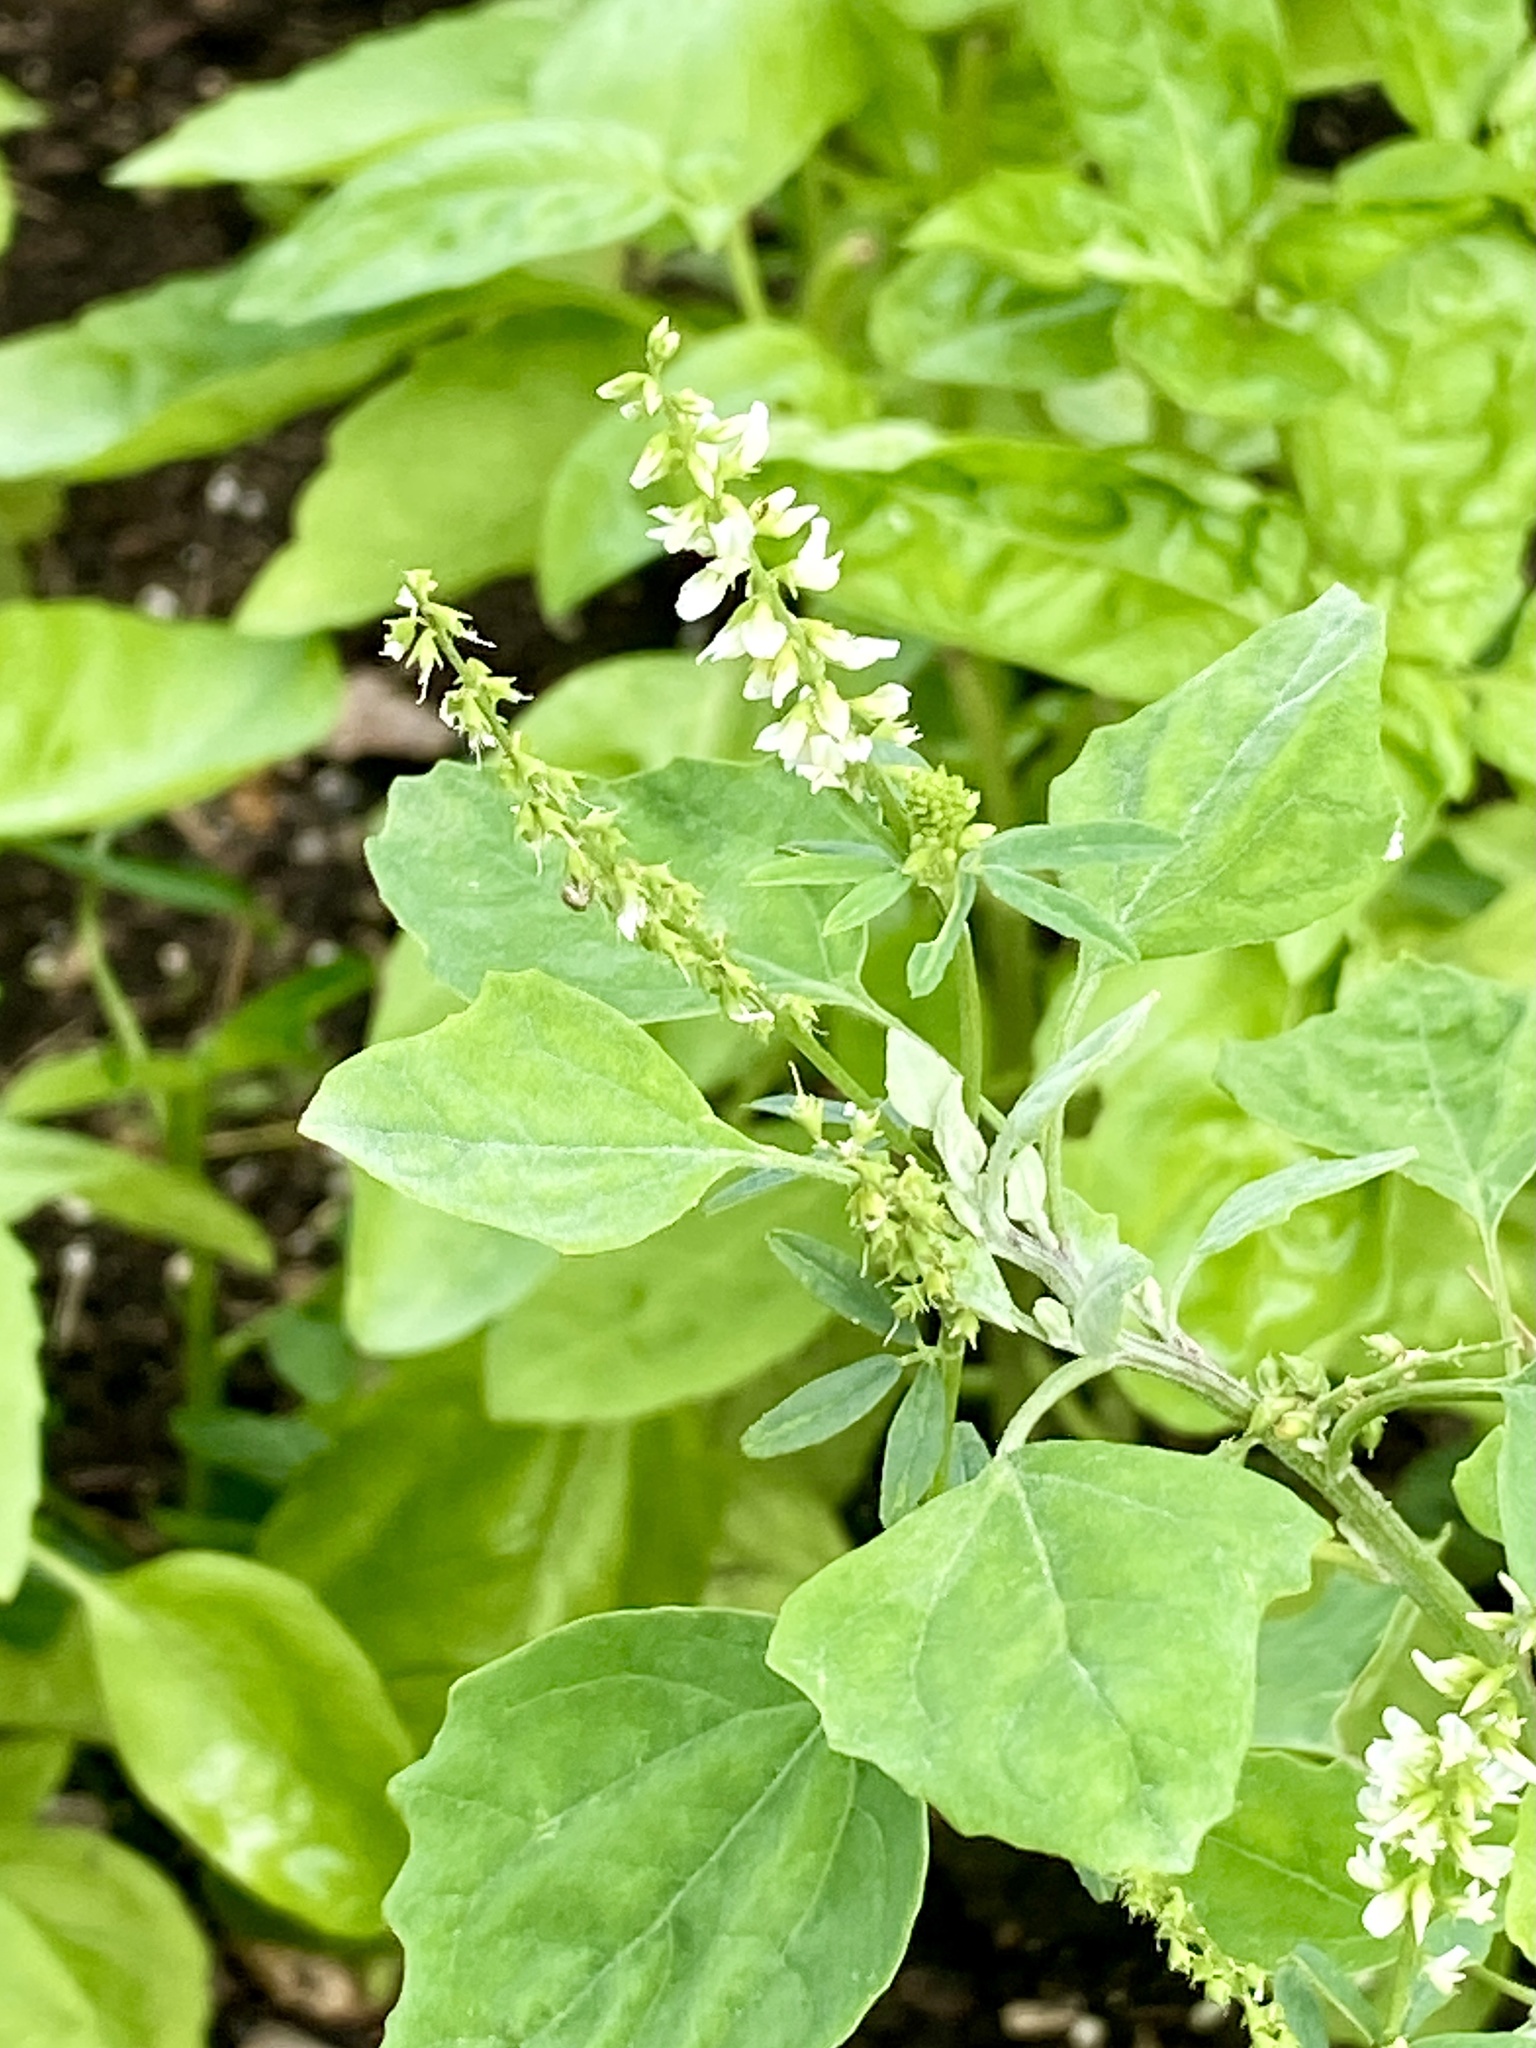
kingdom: Plantae
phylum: Tracheophyta
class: Magnoliopsida
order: Fabales
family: Fabaceae
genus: Melilotus
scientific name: Melilotus albus
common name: White melilot
